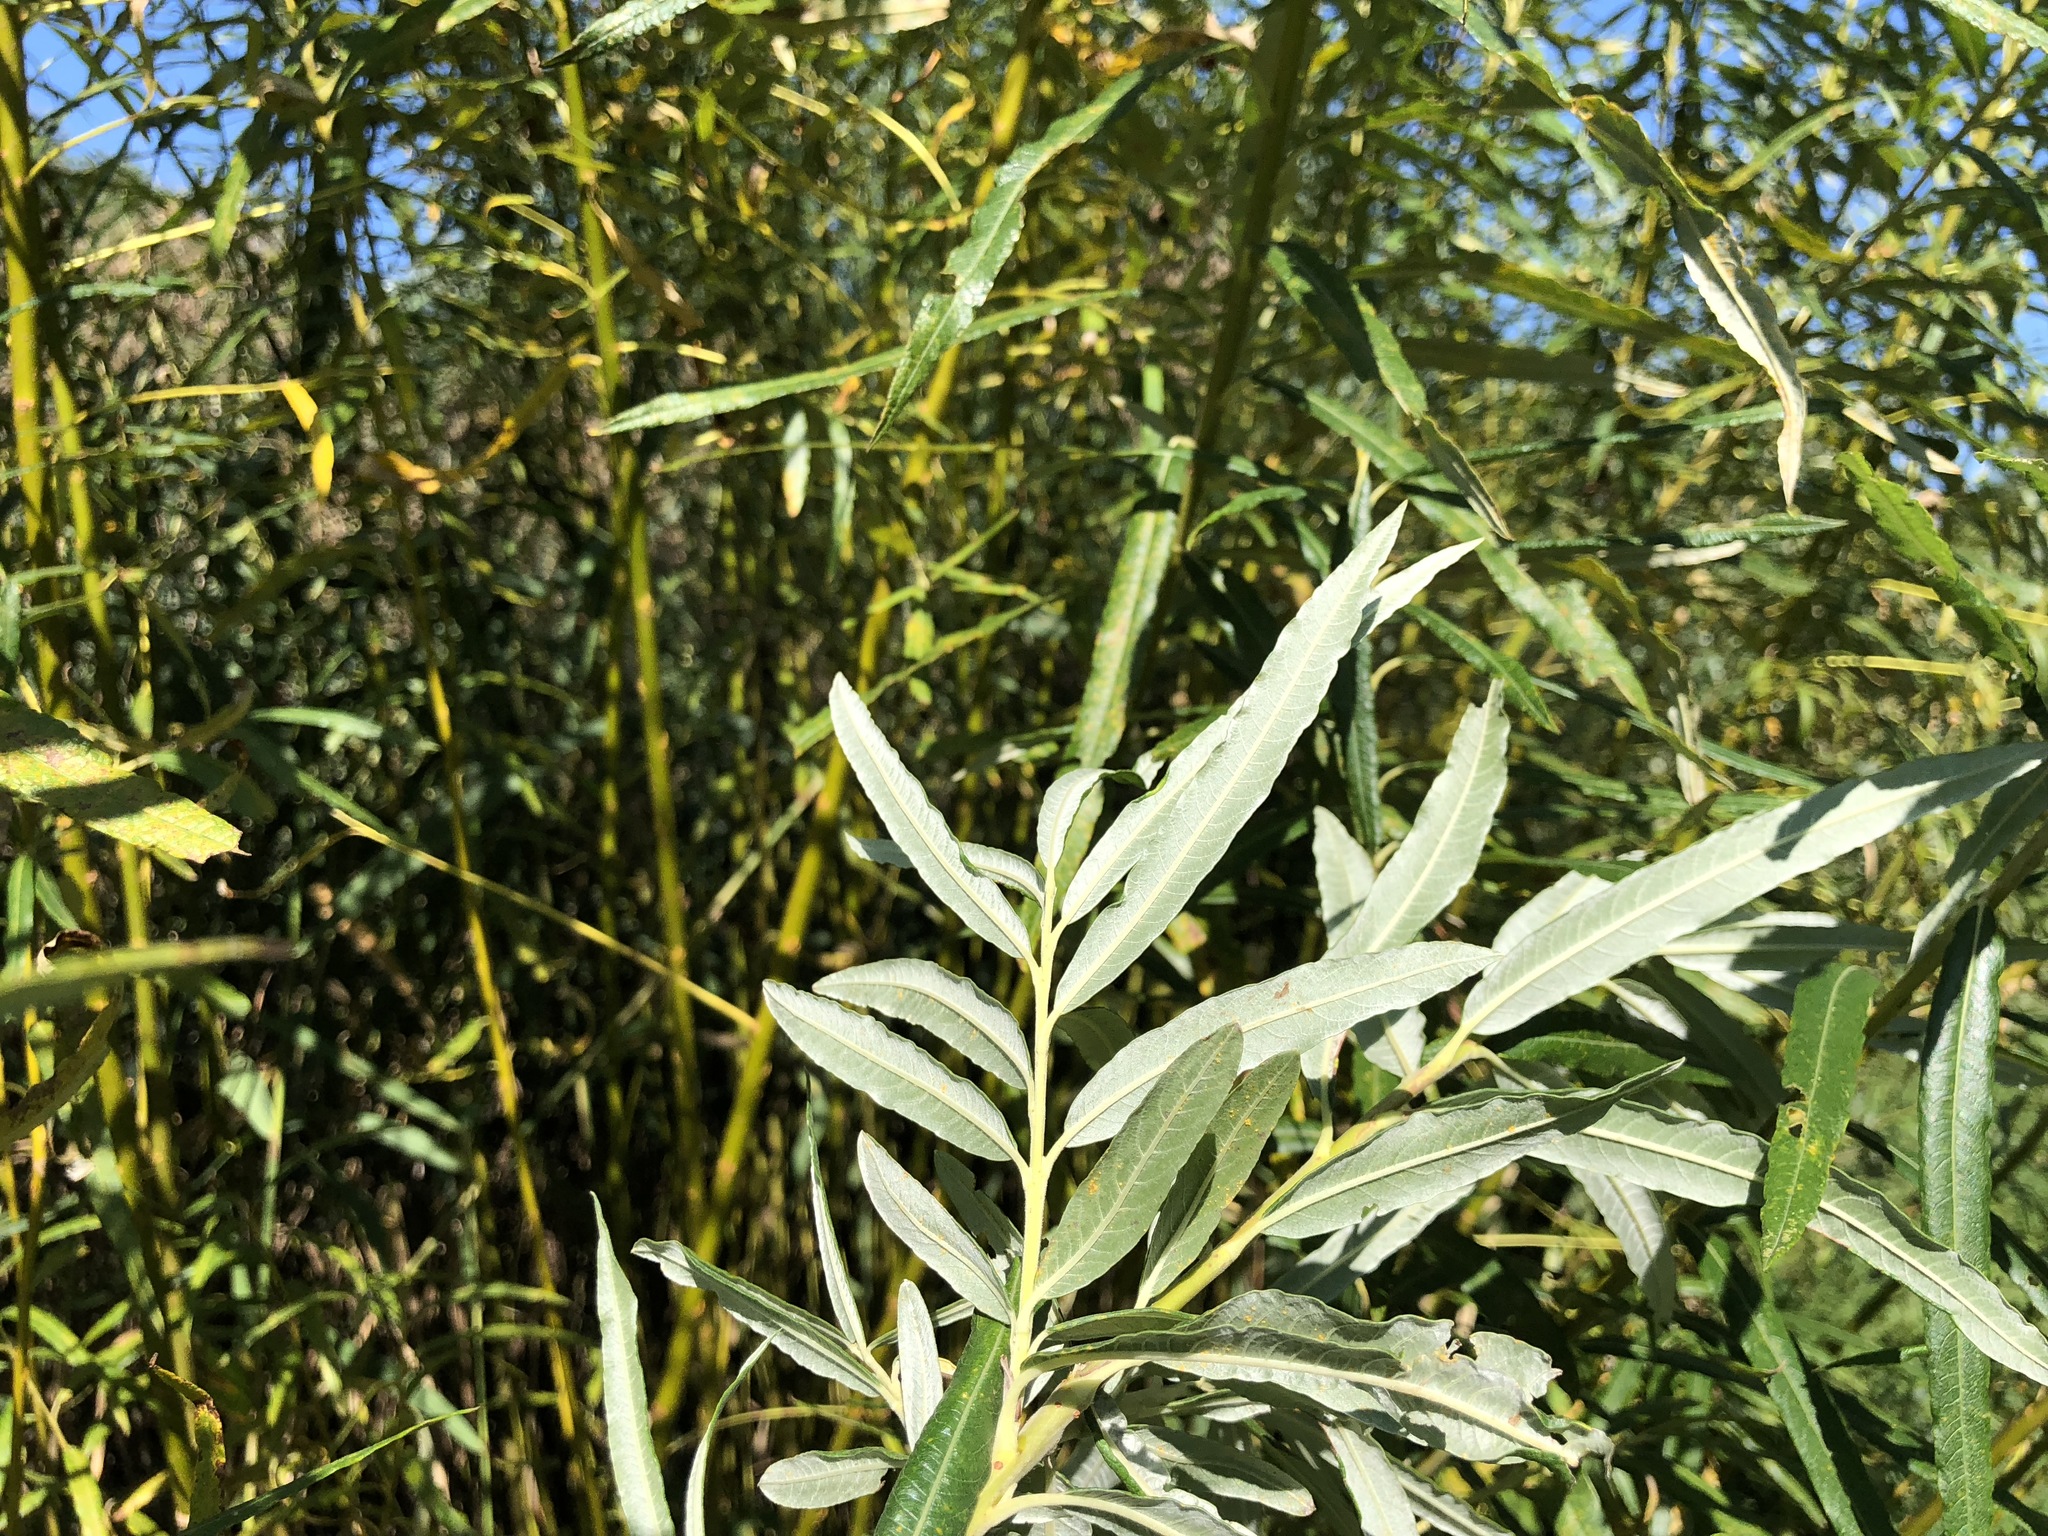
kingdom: Plantae
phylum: Tracheophyta
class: Magnoliopsida
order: Malpighiales
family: Salicaceae
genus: Salix
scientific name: Salix eleagnos
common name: Elaeagnus willow
